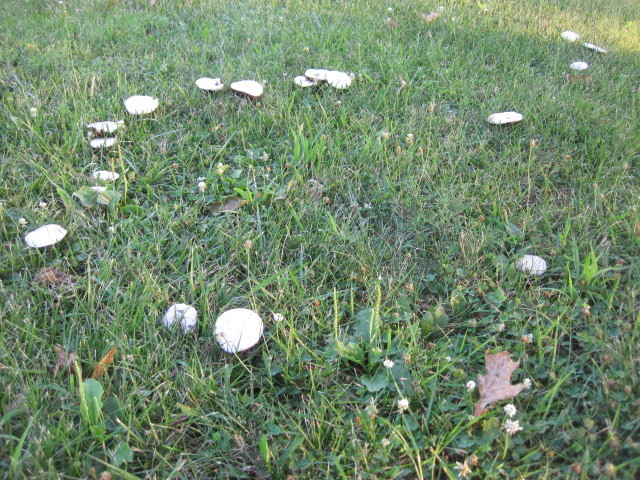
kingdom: Fungi
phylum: Basidiomycota
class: Agaricomycetes
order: Agaricales
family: Agaricaceae
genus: Agaricus
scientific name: Agaricus campestris
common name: Field mushroom
